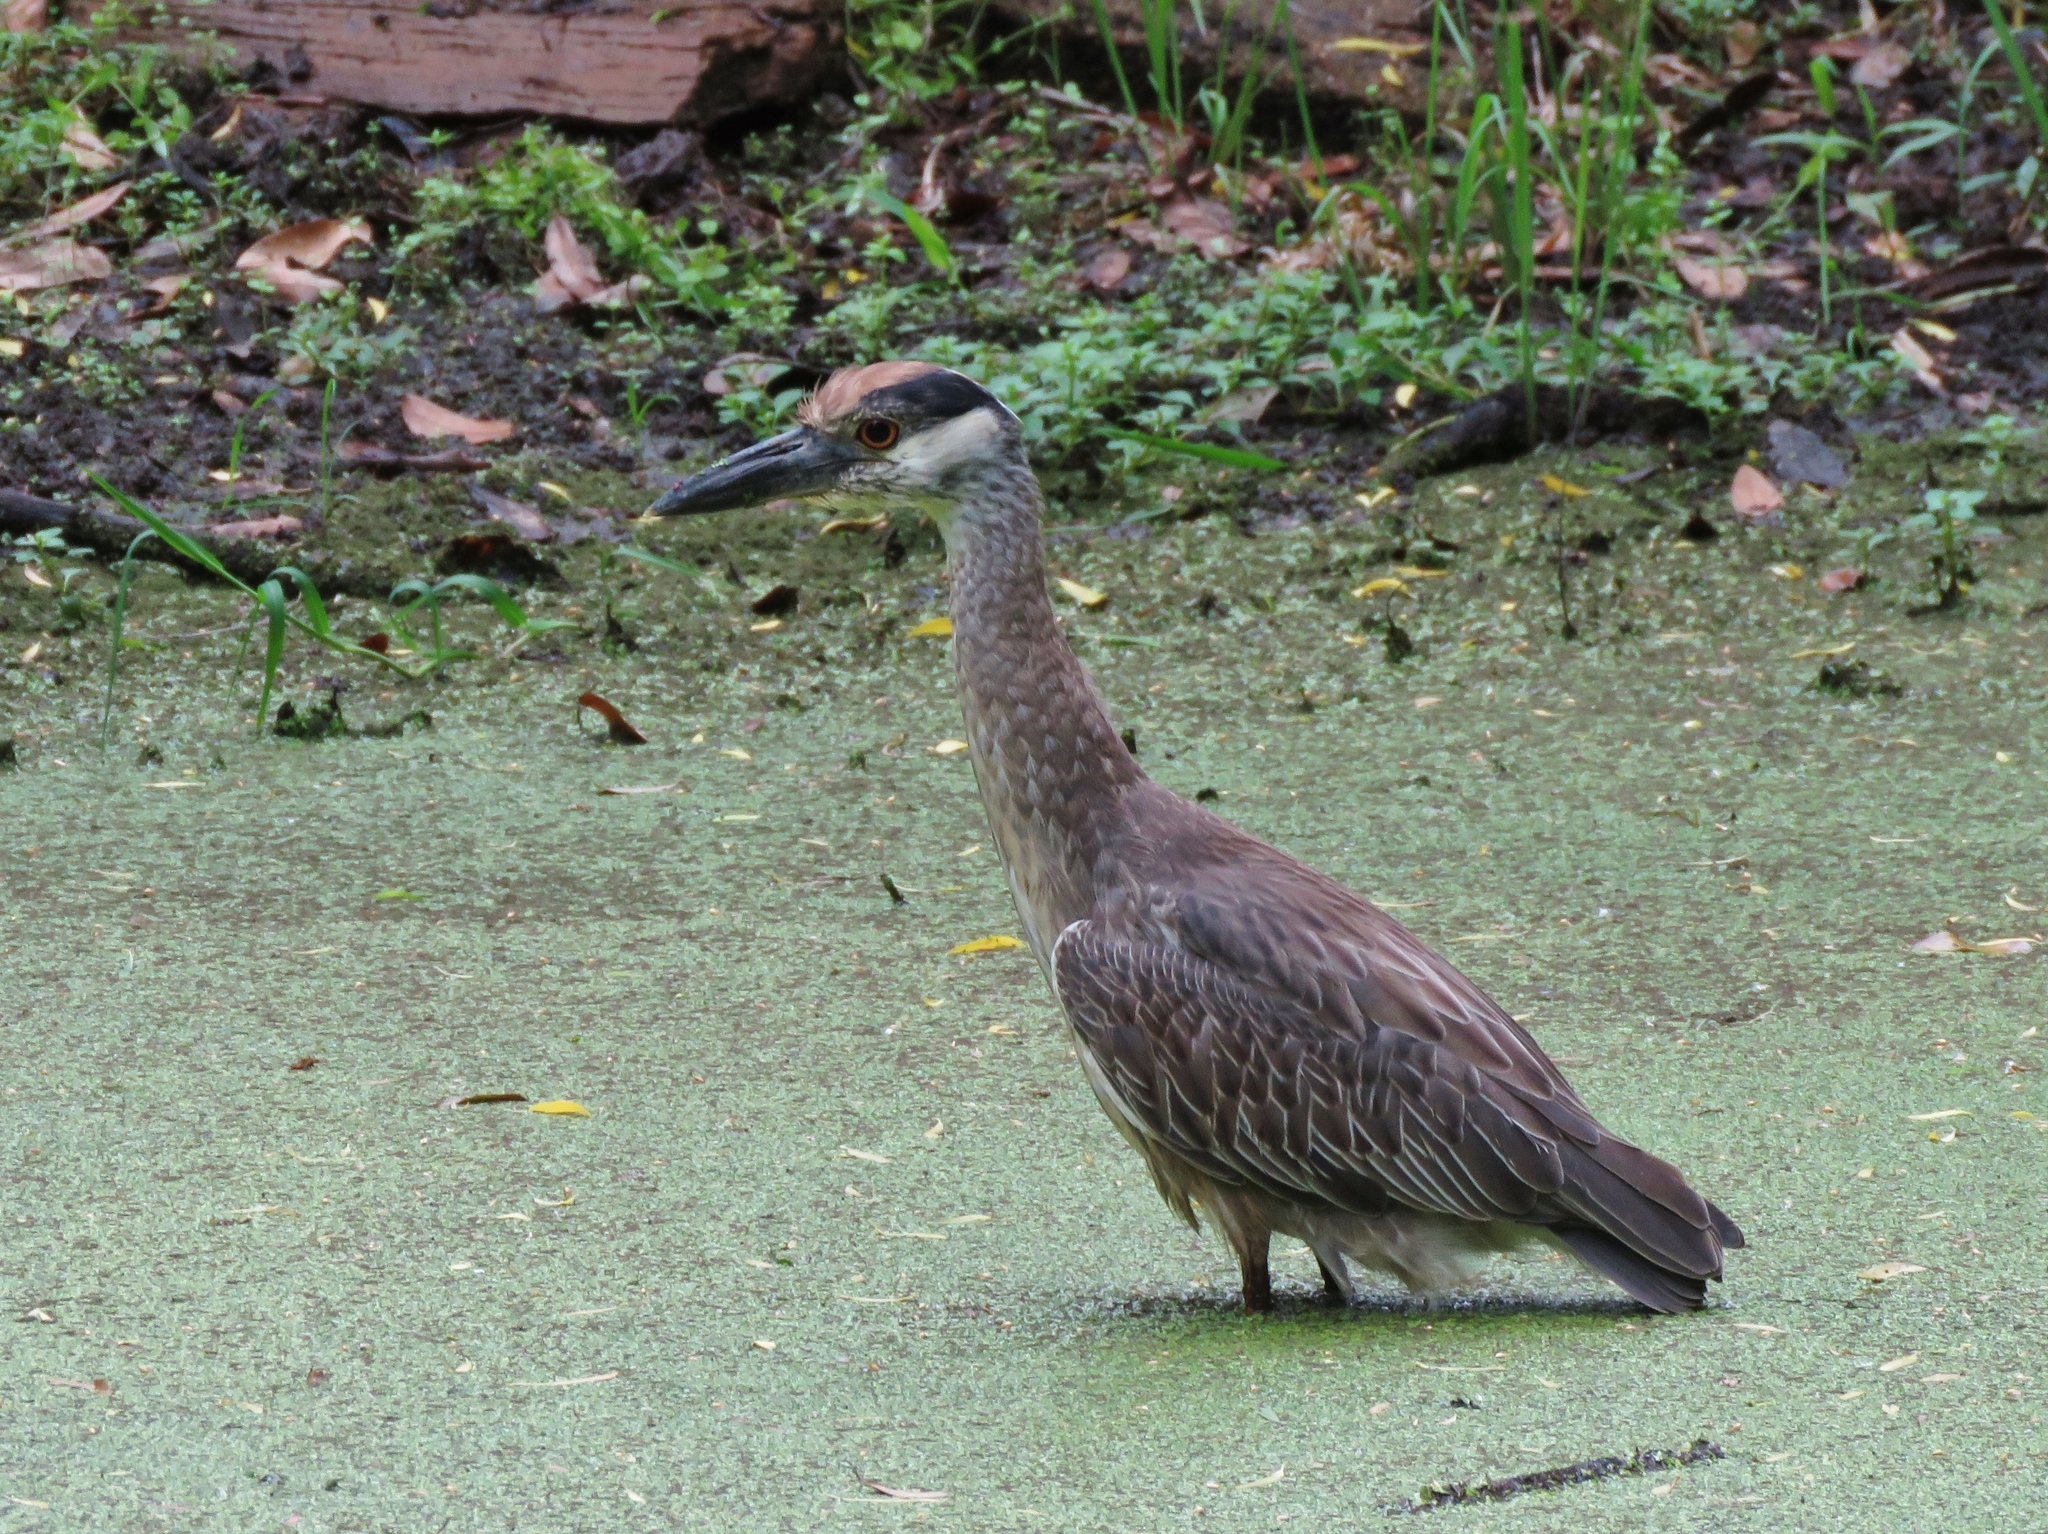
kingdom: Animalia
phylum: Chordata
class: Aves
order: Pelecaniformes
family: Ardeidae
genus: Nyctanassa
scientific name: Nyctanassa violacea
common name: Yellow-crowned night heron
